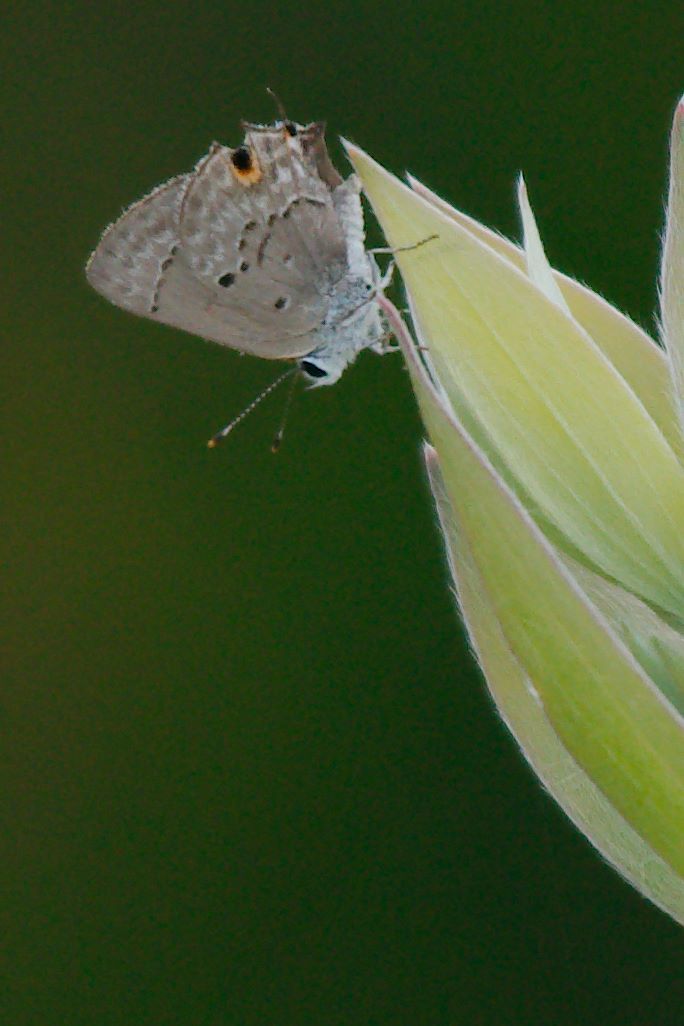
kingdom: Animalia
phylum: Arthropoda
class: Insecta
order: Lepidoptera
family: Lycaenidae
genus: Callicista
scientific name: Callicista columella
